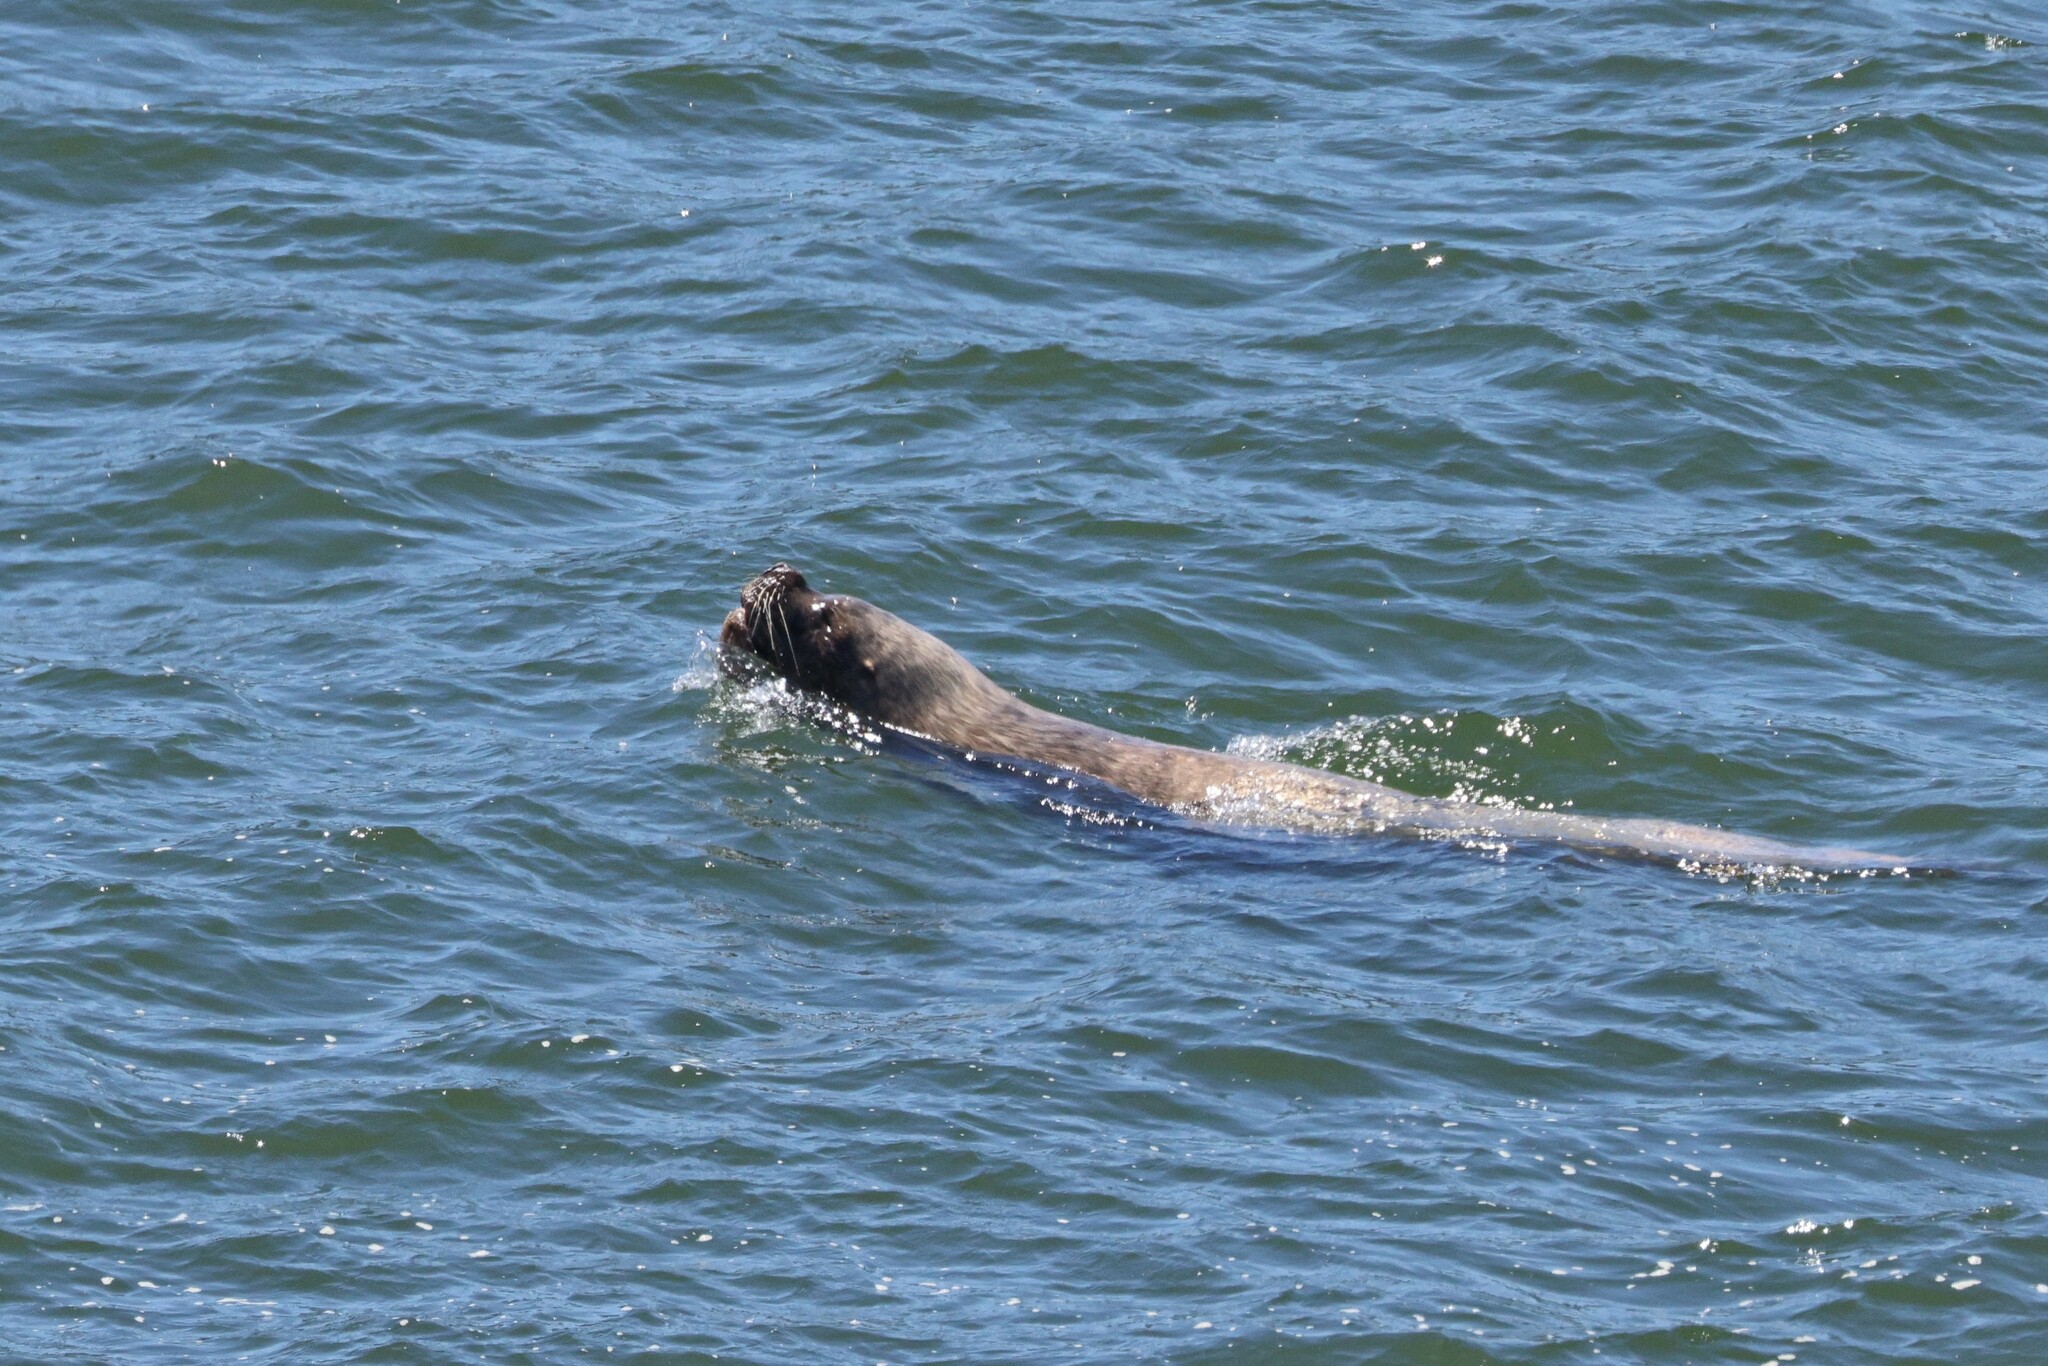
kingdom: Animalia
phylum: Chordata
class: Mammalia
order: Carnivora
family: Otariidae
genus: Otaria
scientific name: Otaria byronia
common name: South american sea lion
